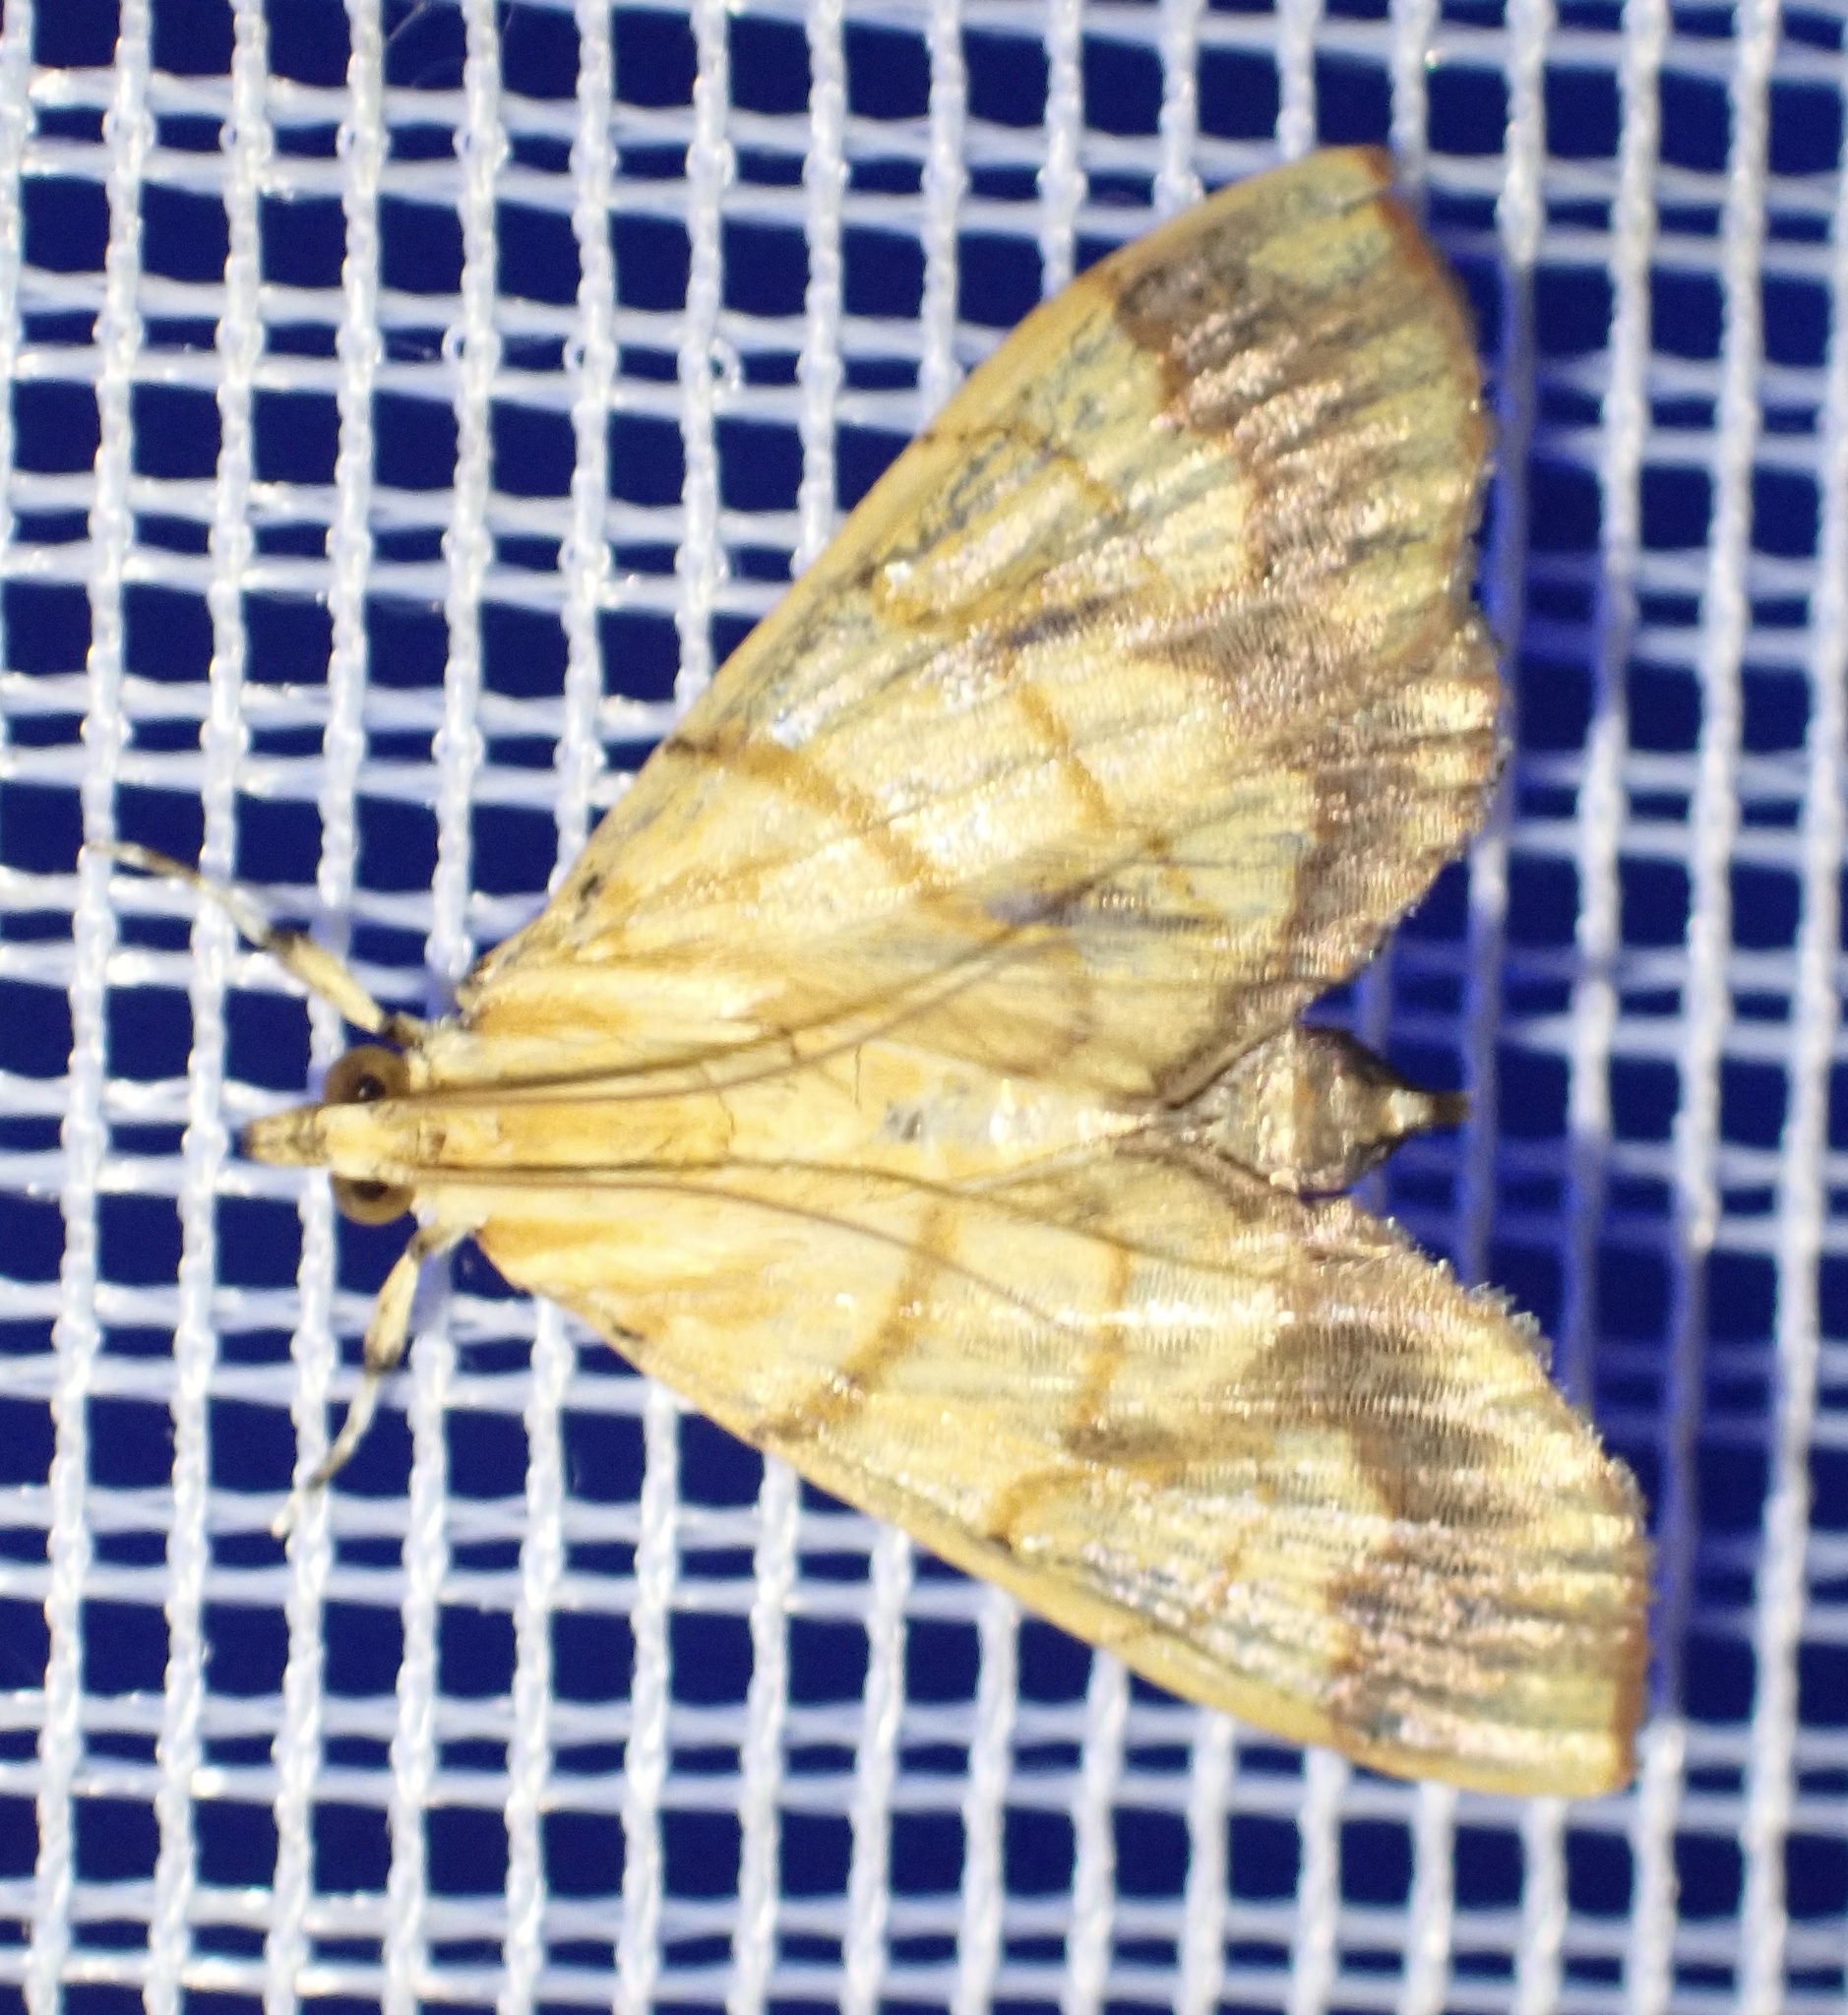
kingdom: Animalia
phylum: Arthropoda
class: Insecta
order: Lepidoptera
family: Crambidae
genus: Cryptosara
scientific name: Cryptosara caritalis
